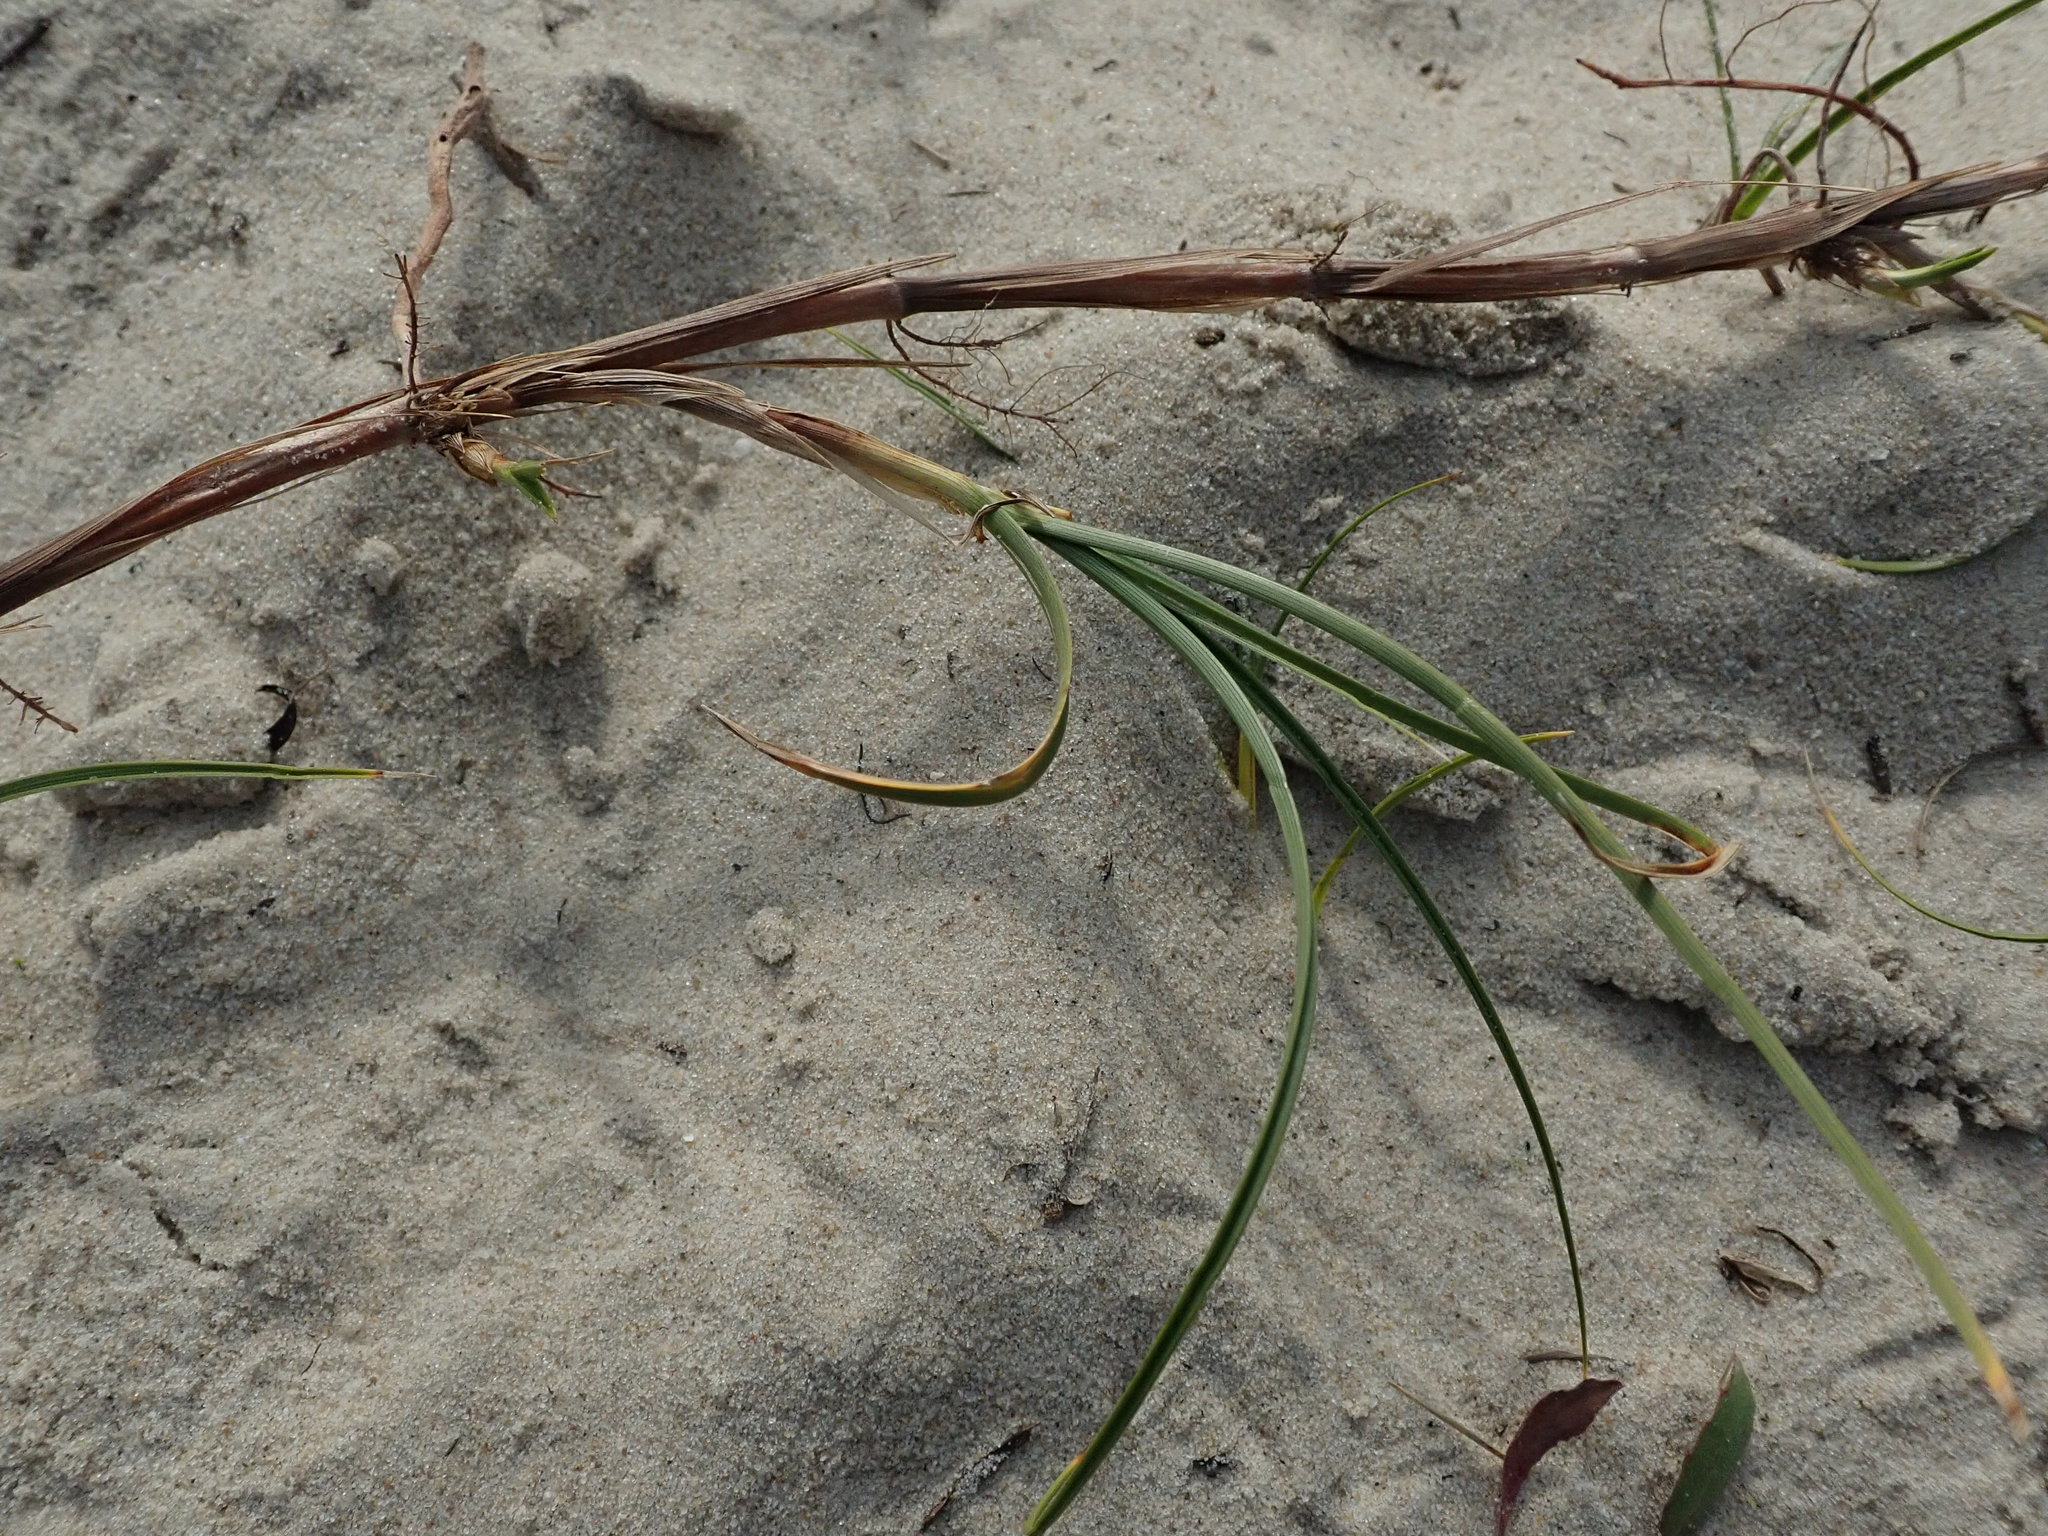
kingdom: Plantae
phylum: Tracheophyta
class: Liliopsida
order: Poales
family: Cyperaceae
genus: Carex
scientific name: Carex arenaria
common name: Sand sedge
